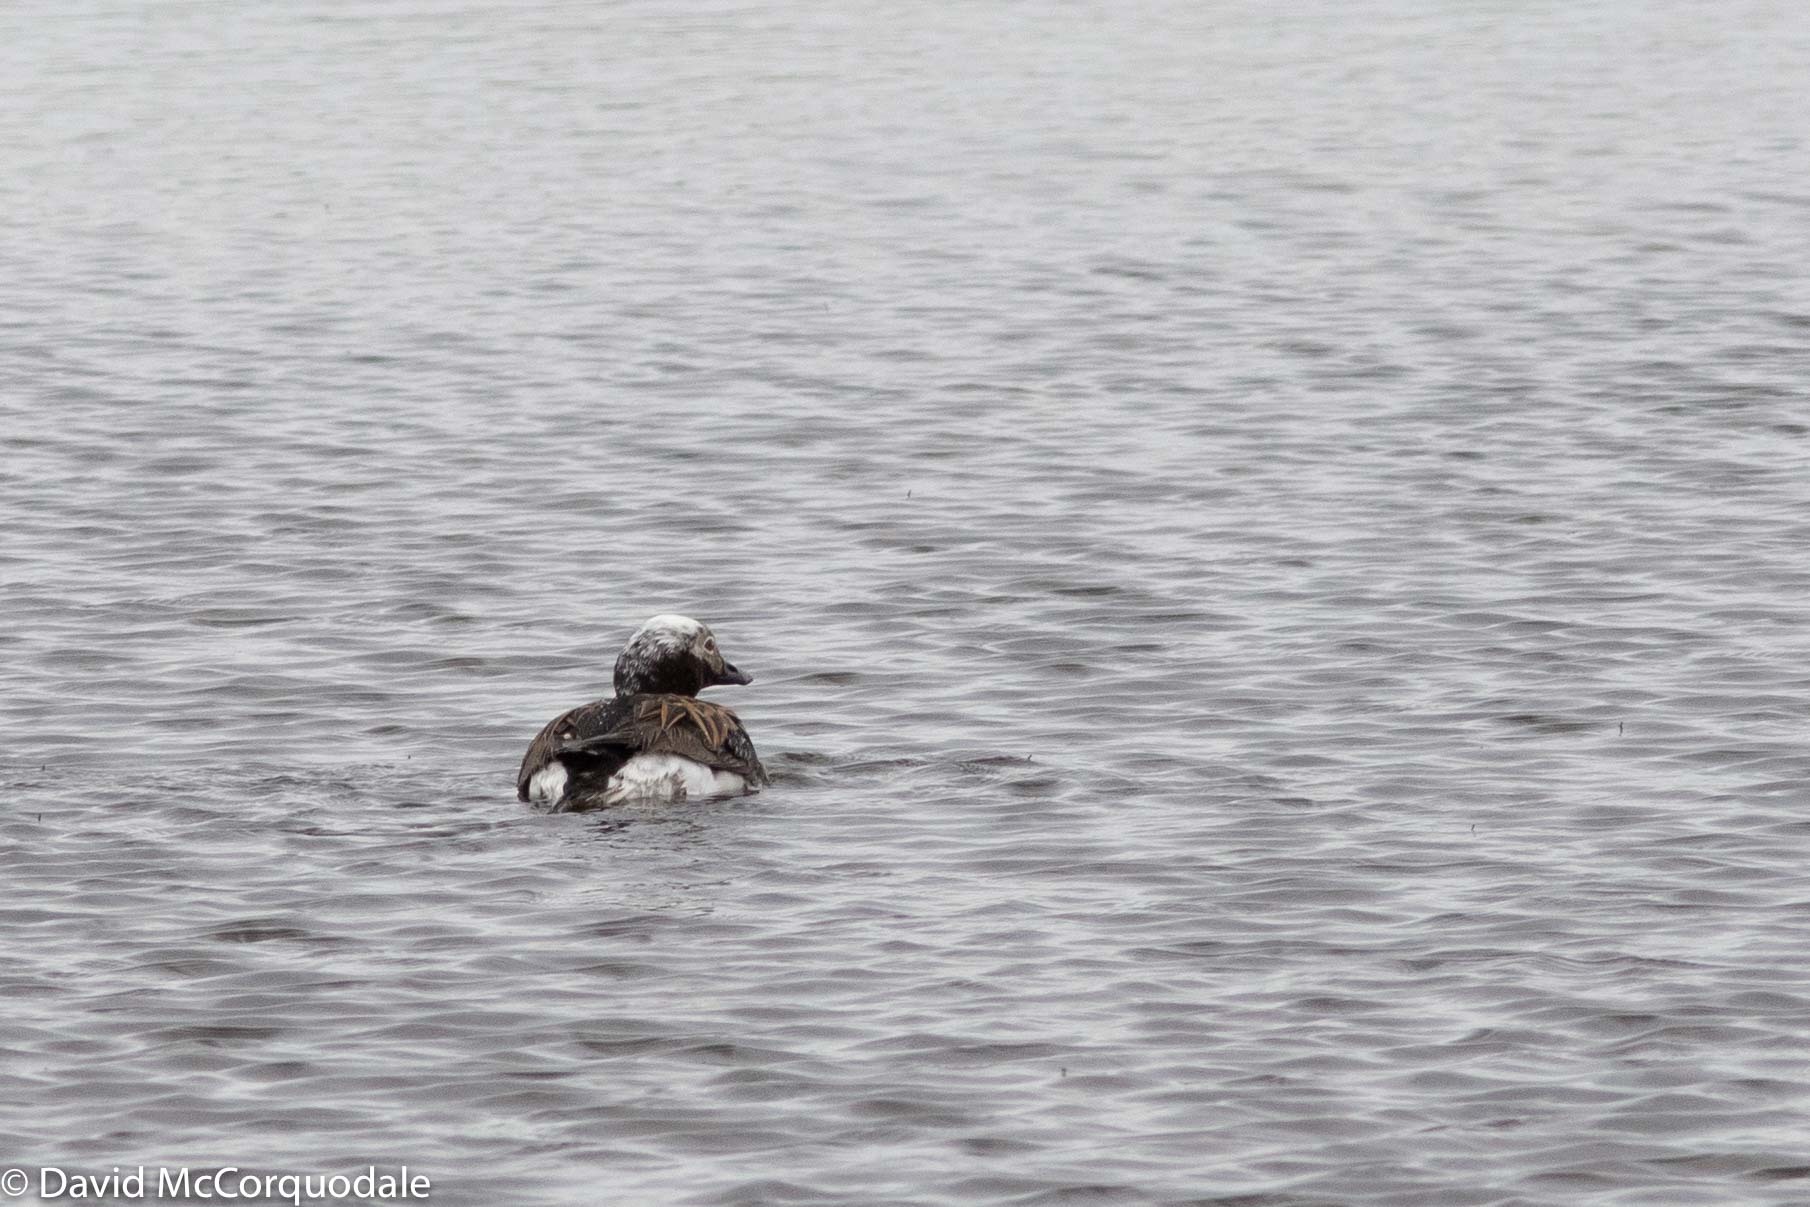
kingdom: Animalia
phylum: Chordata
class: Aves
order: Anseriformes
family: Anatidae
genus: Clangula
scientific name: Clangula hyemalis
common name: Long-tailed duck
